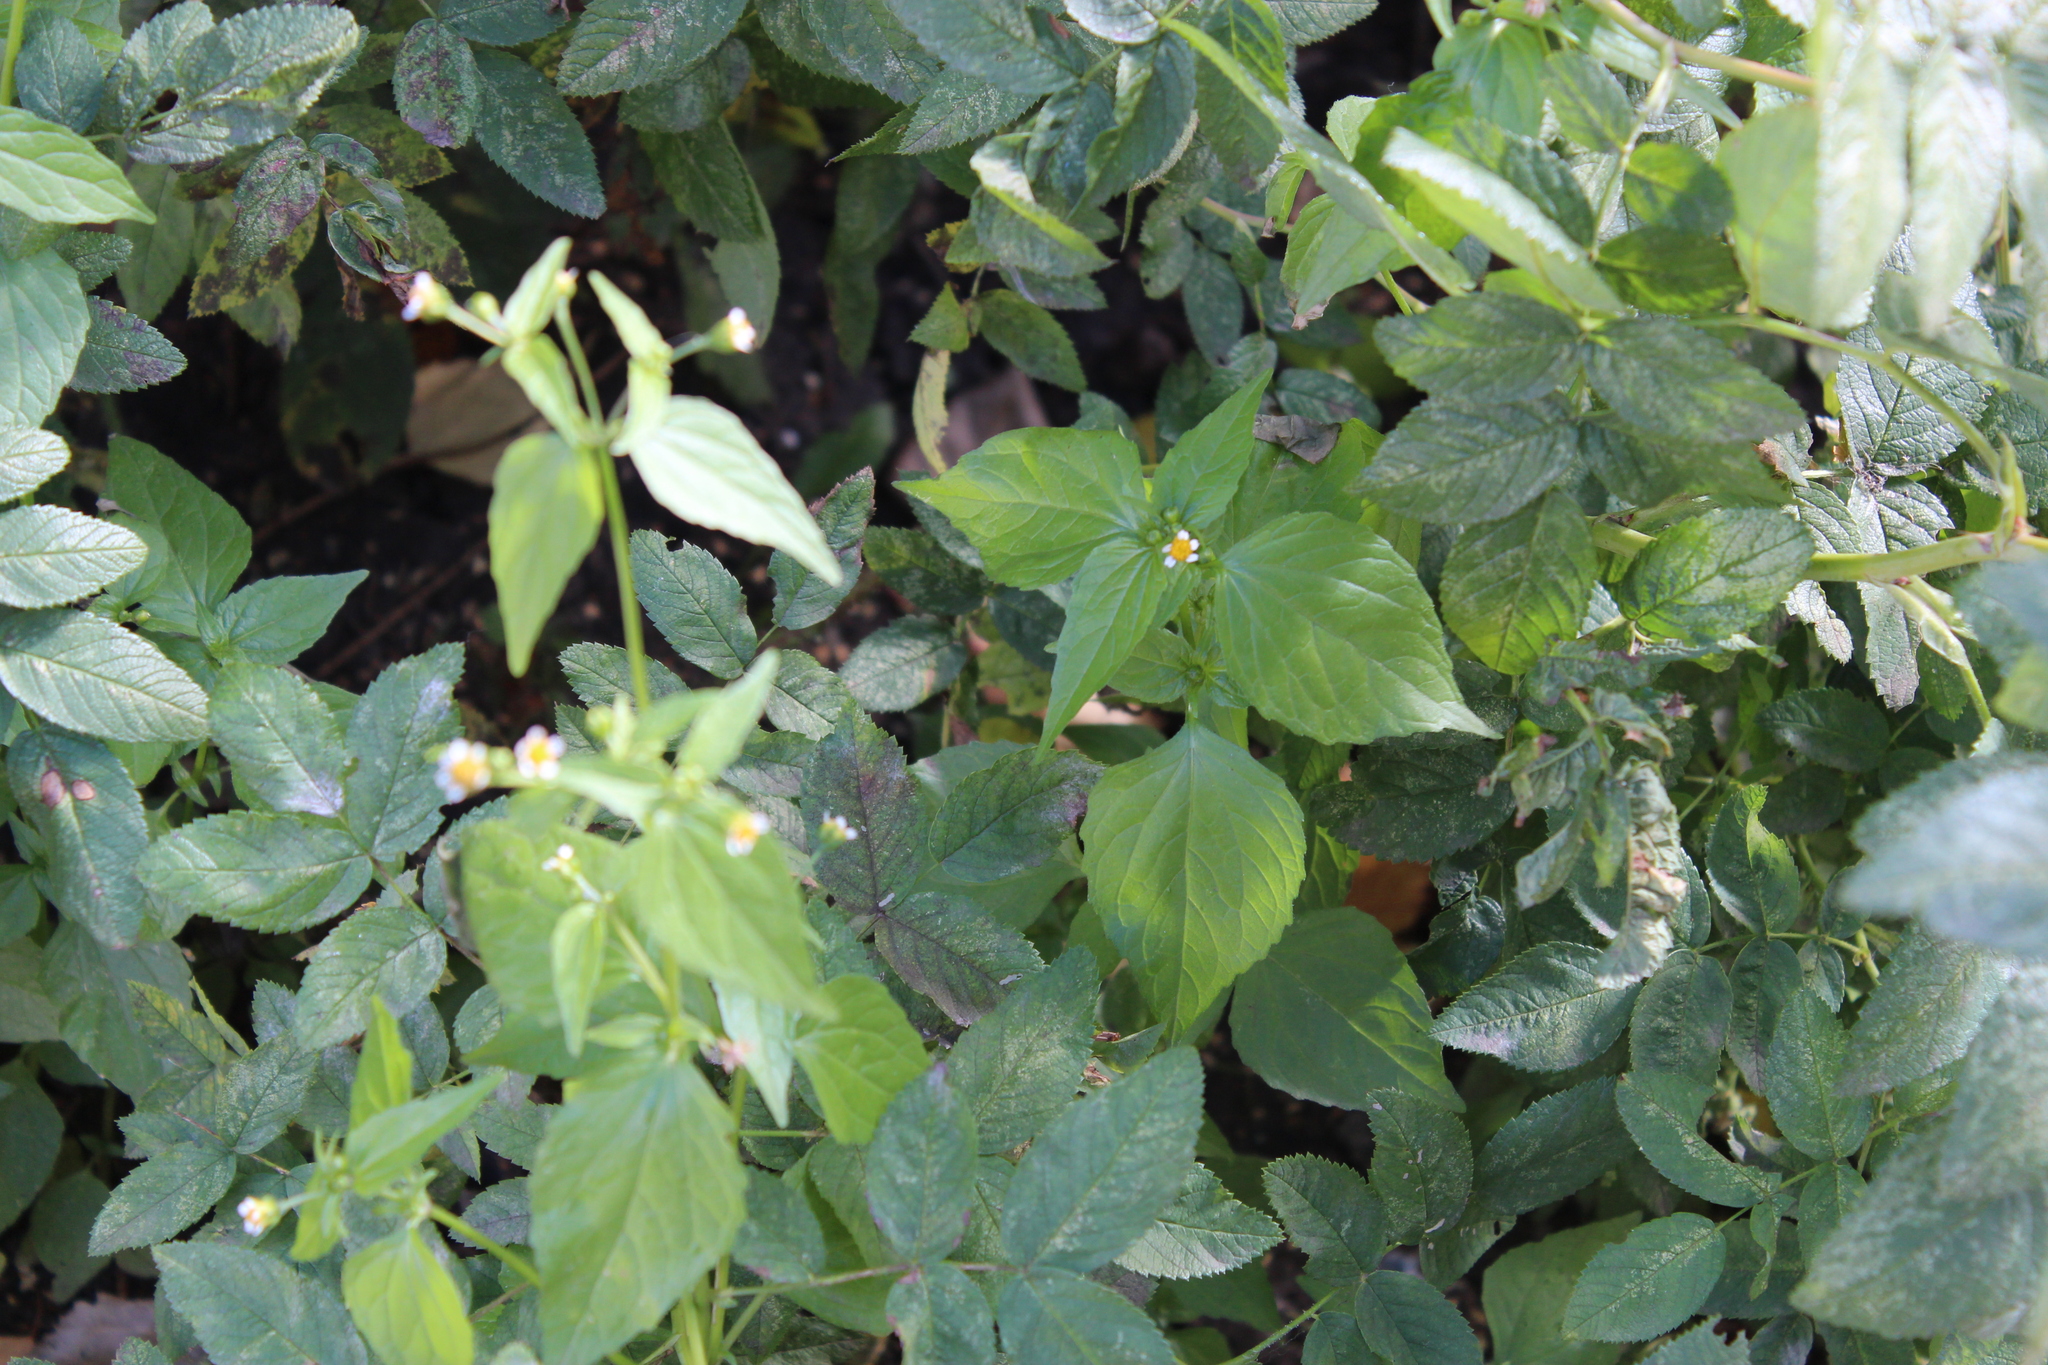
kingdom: Plantae
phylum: Tracheophyta
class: Magnoliopsida
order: Asterales
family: Asteraceae
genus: Galinsoga
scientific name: Galinsoga parviflora
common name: Gallant soldier
